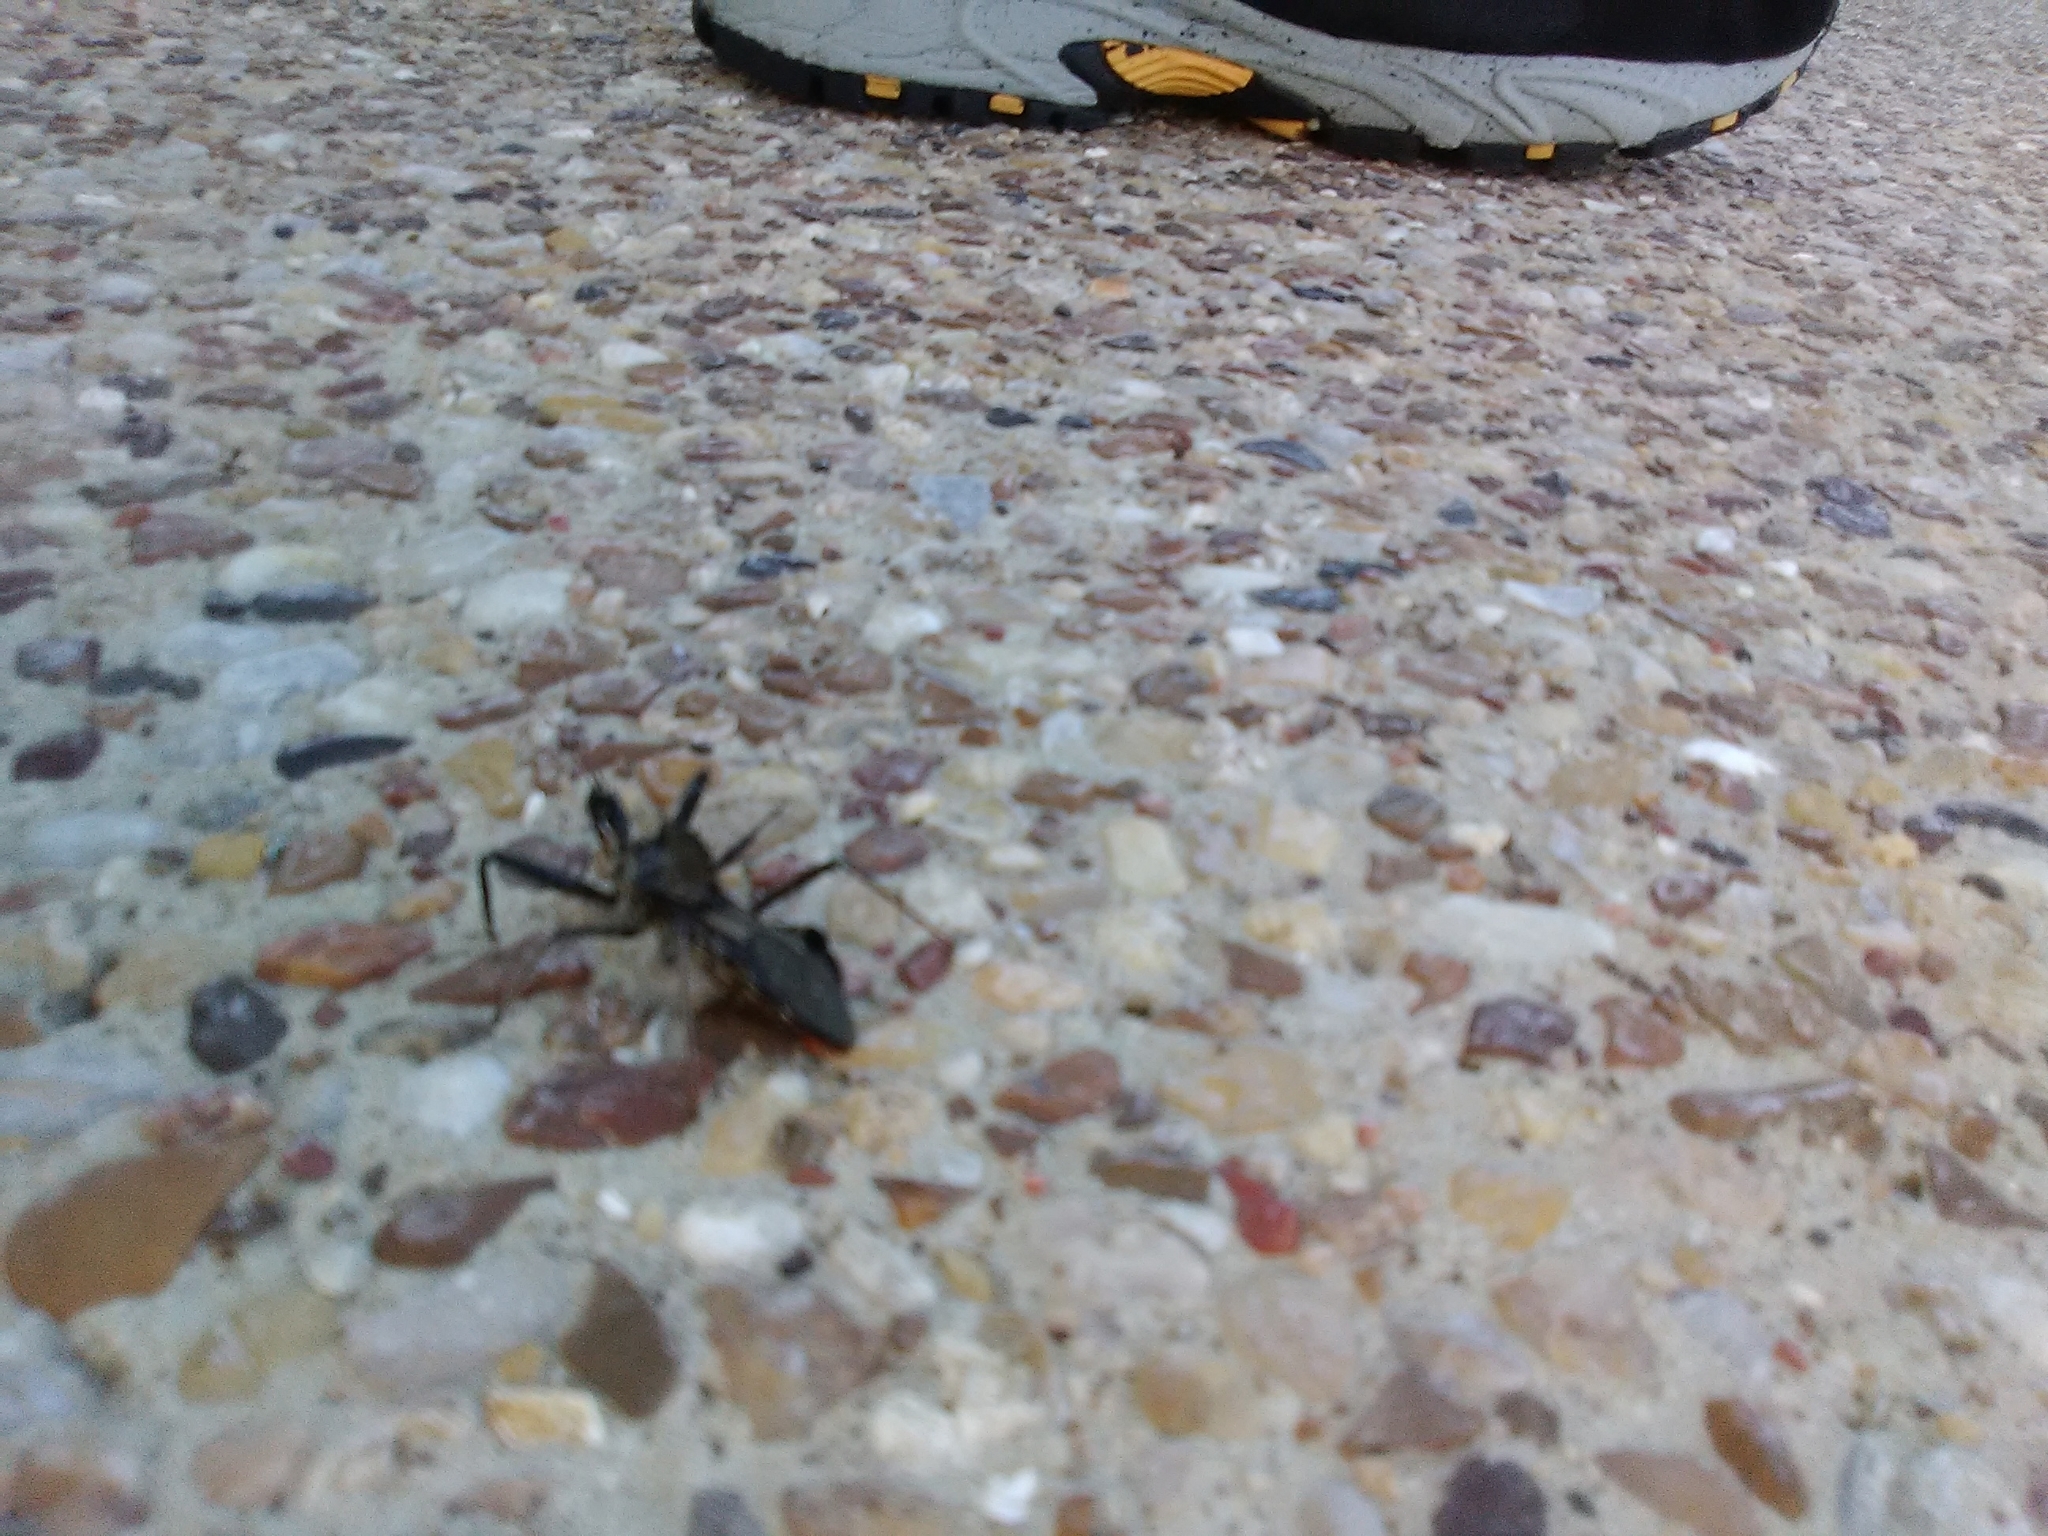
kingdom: Animalia
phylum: Arthropoda
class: Insecta
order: Hemiptera
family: Reduviidae
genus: Arilus
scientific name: Arilus cristatus
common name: North american wheel bug
